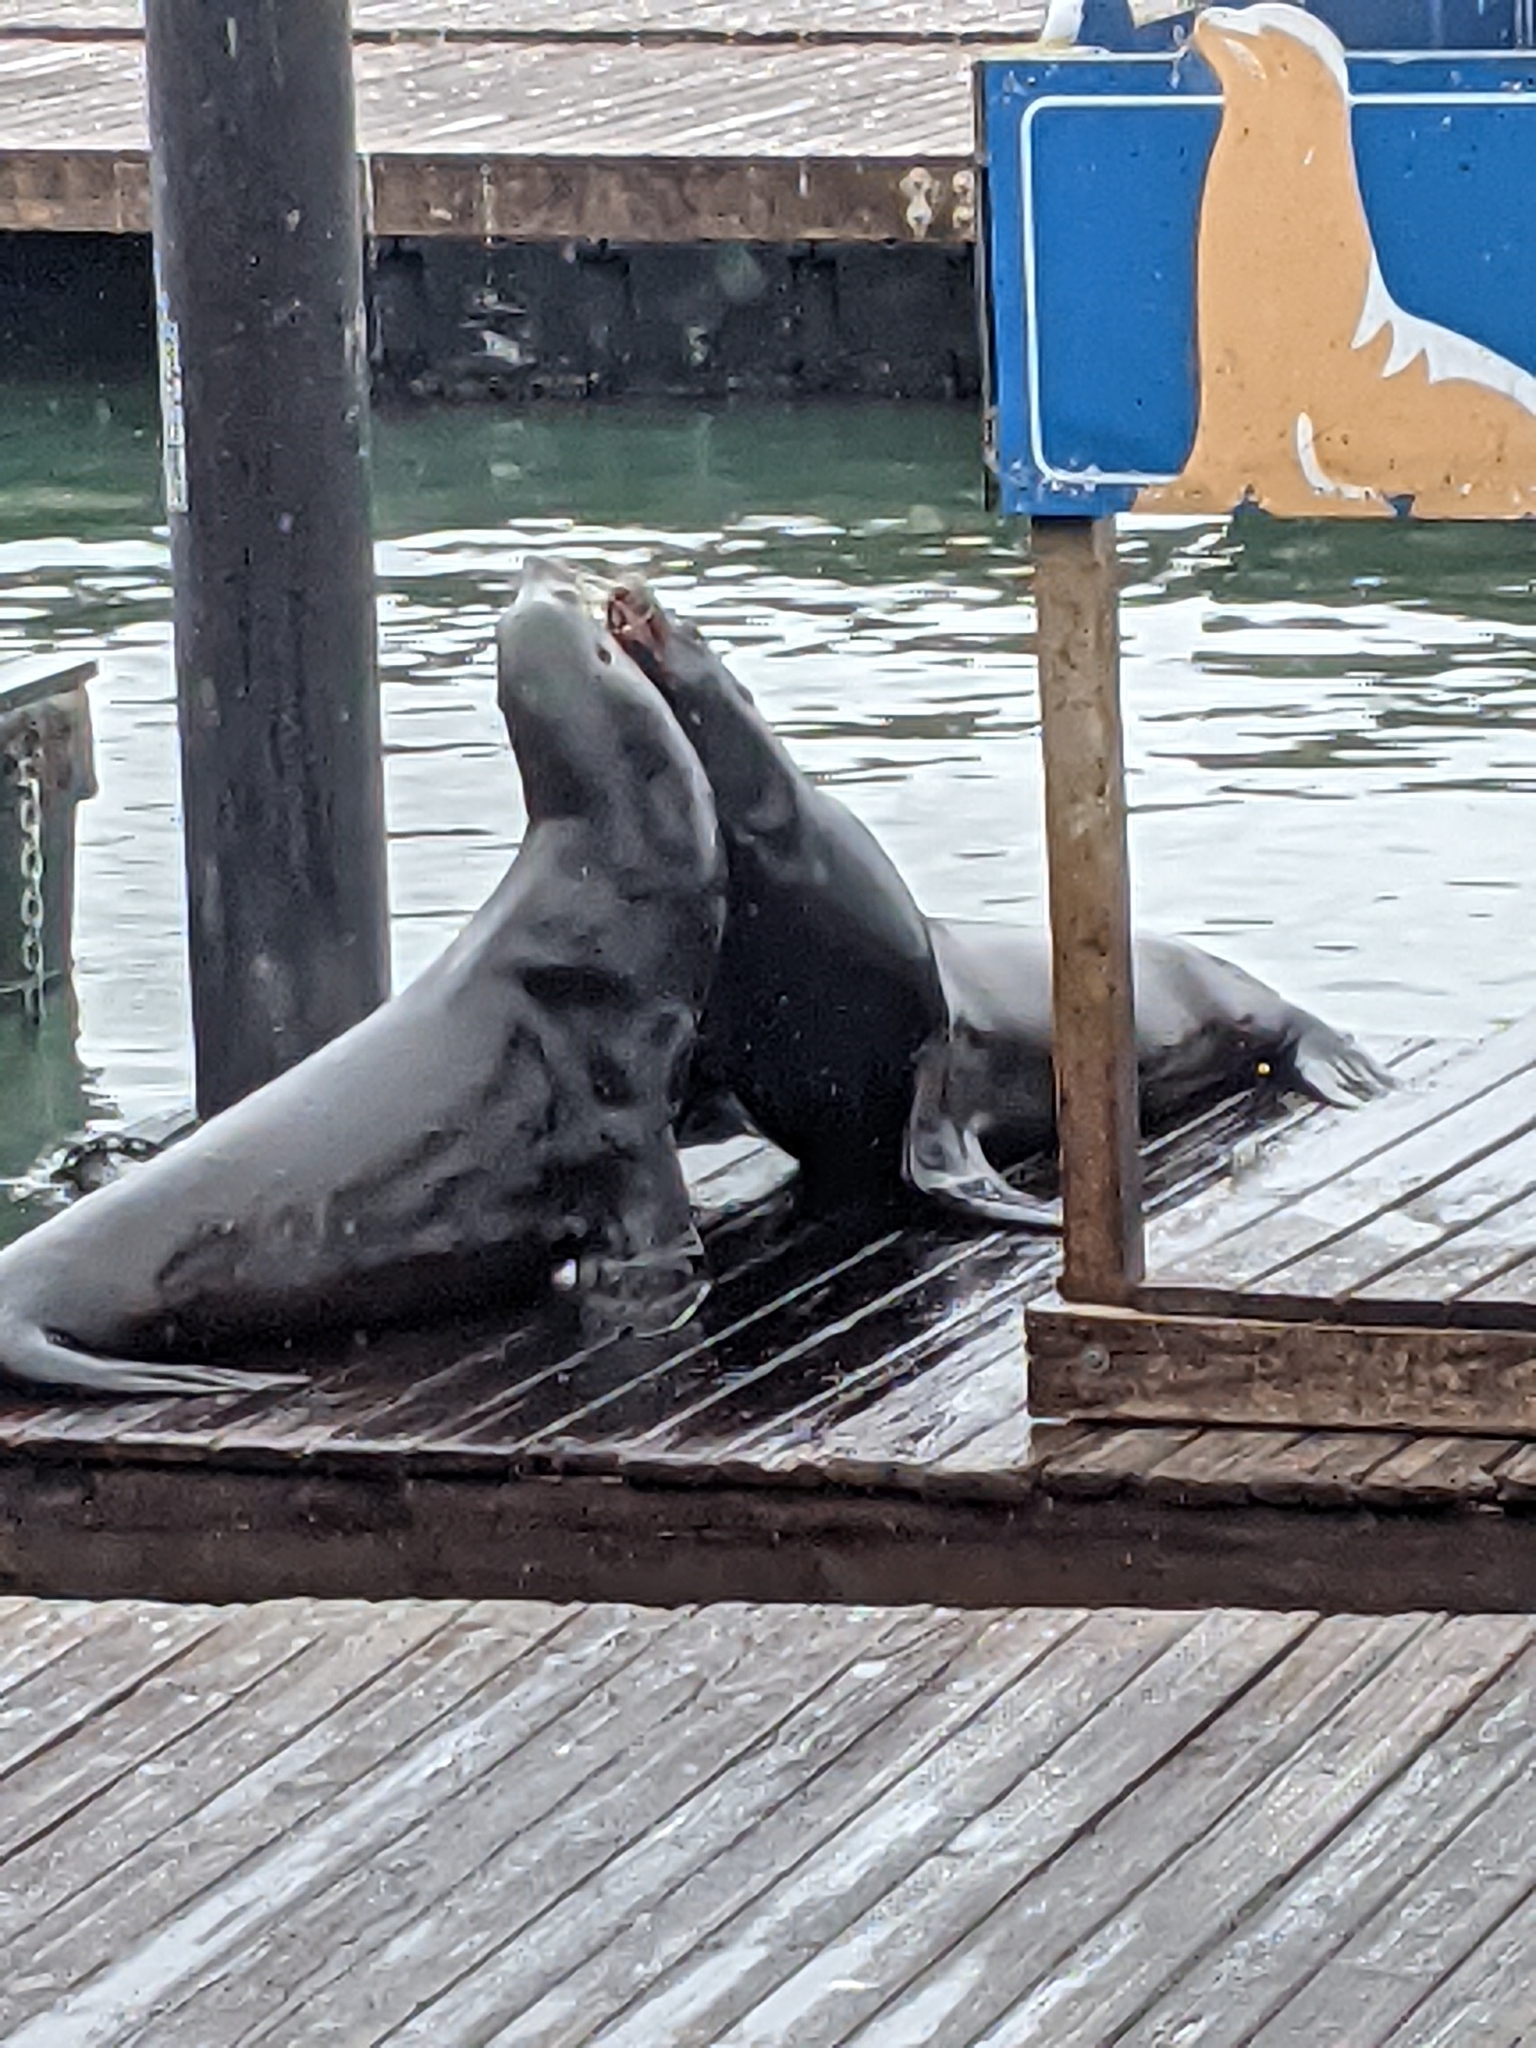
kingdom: Animalia
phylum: Chordata
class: Mammalia
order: Carnivora
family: Otariidae
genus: Zalophus
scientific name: Zalophus californianus
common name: California sea lion
